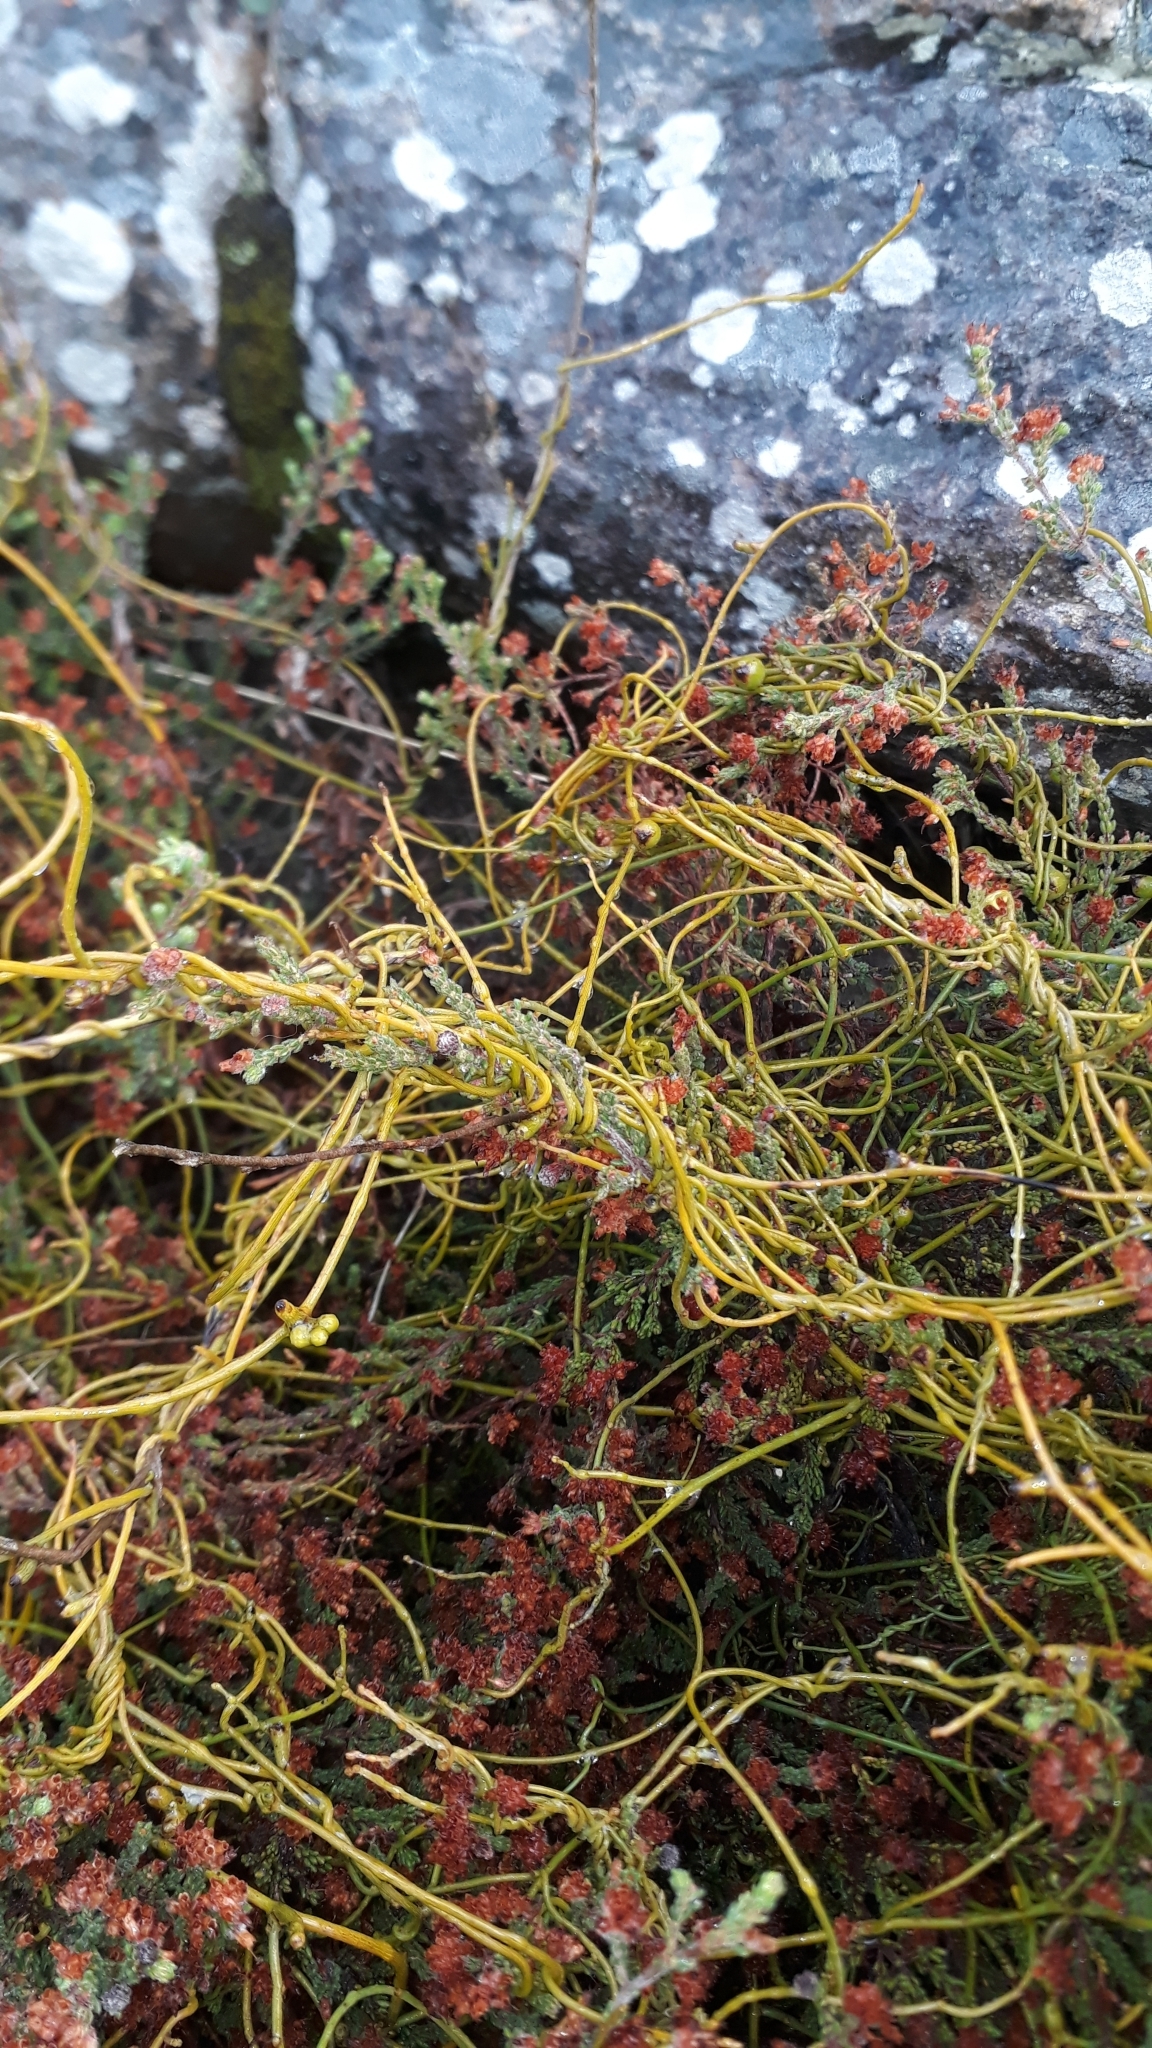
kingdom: Plantae
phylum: Tracheophyta
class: Magnoliopsida
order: Laurales
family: Lauraceae
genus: Cassytha
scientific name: Cassytha ciliolata
